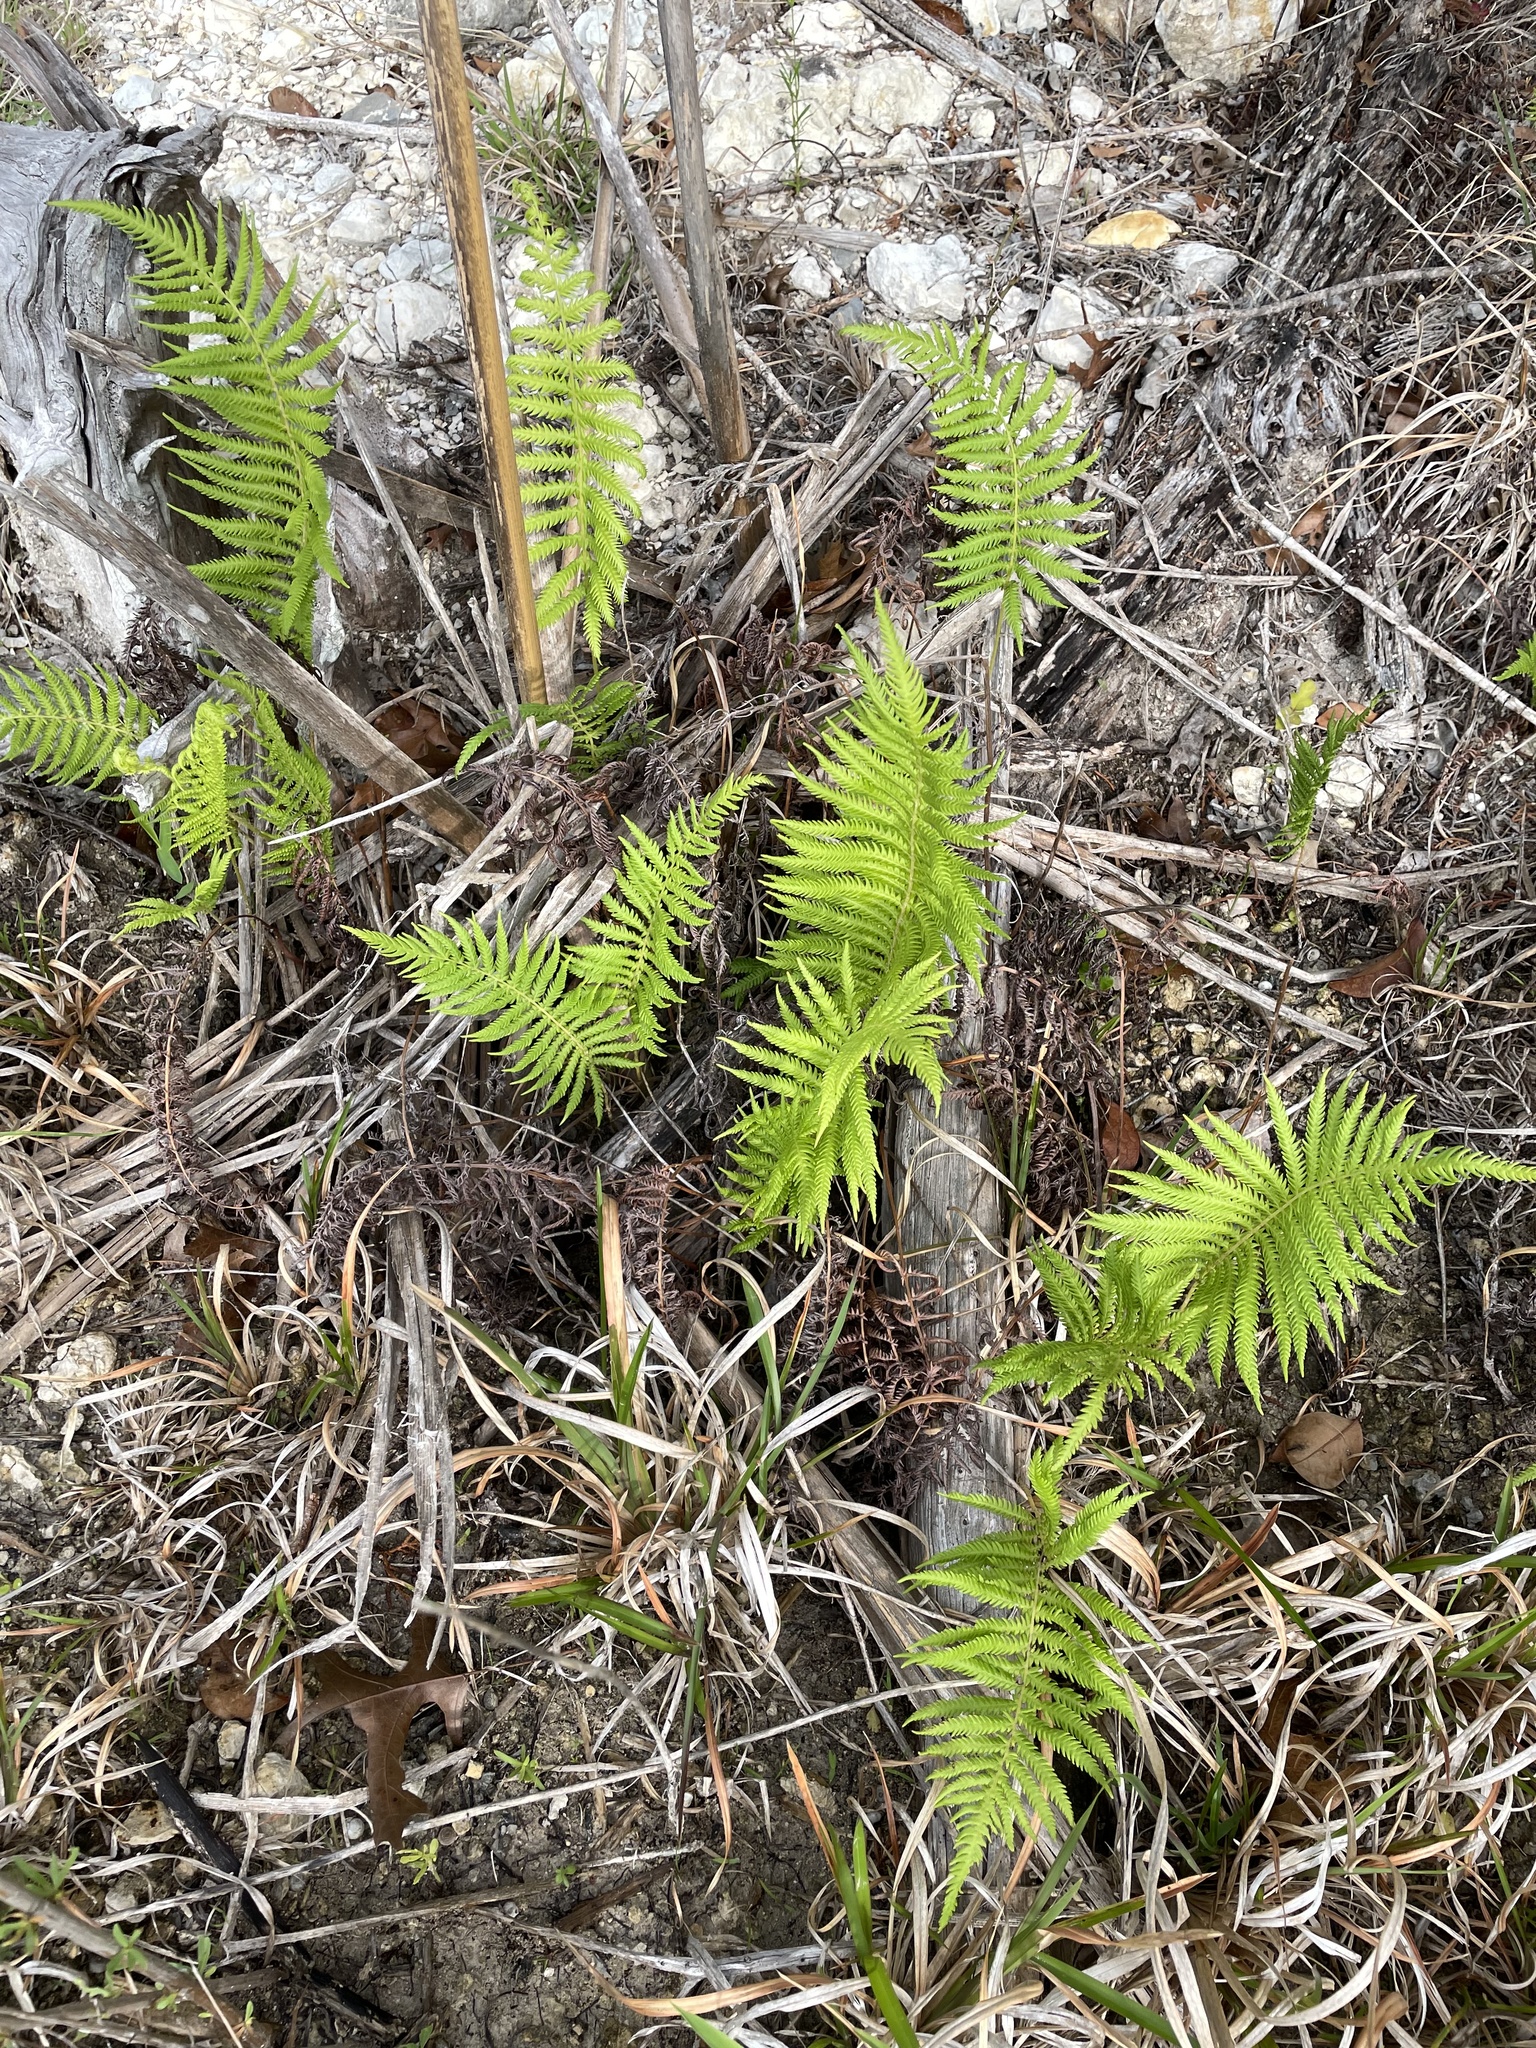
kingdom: Plantae
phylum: Tracheophyta
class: Polypodiopsida
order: Polypodiales
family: Thelypteridaceae
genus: Pelazoneuron
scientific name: Pelazoneuron ovatum
